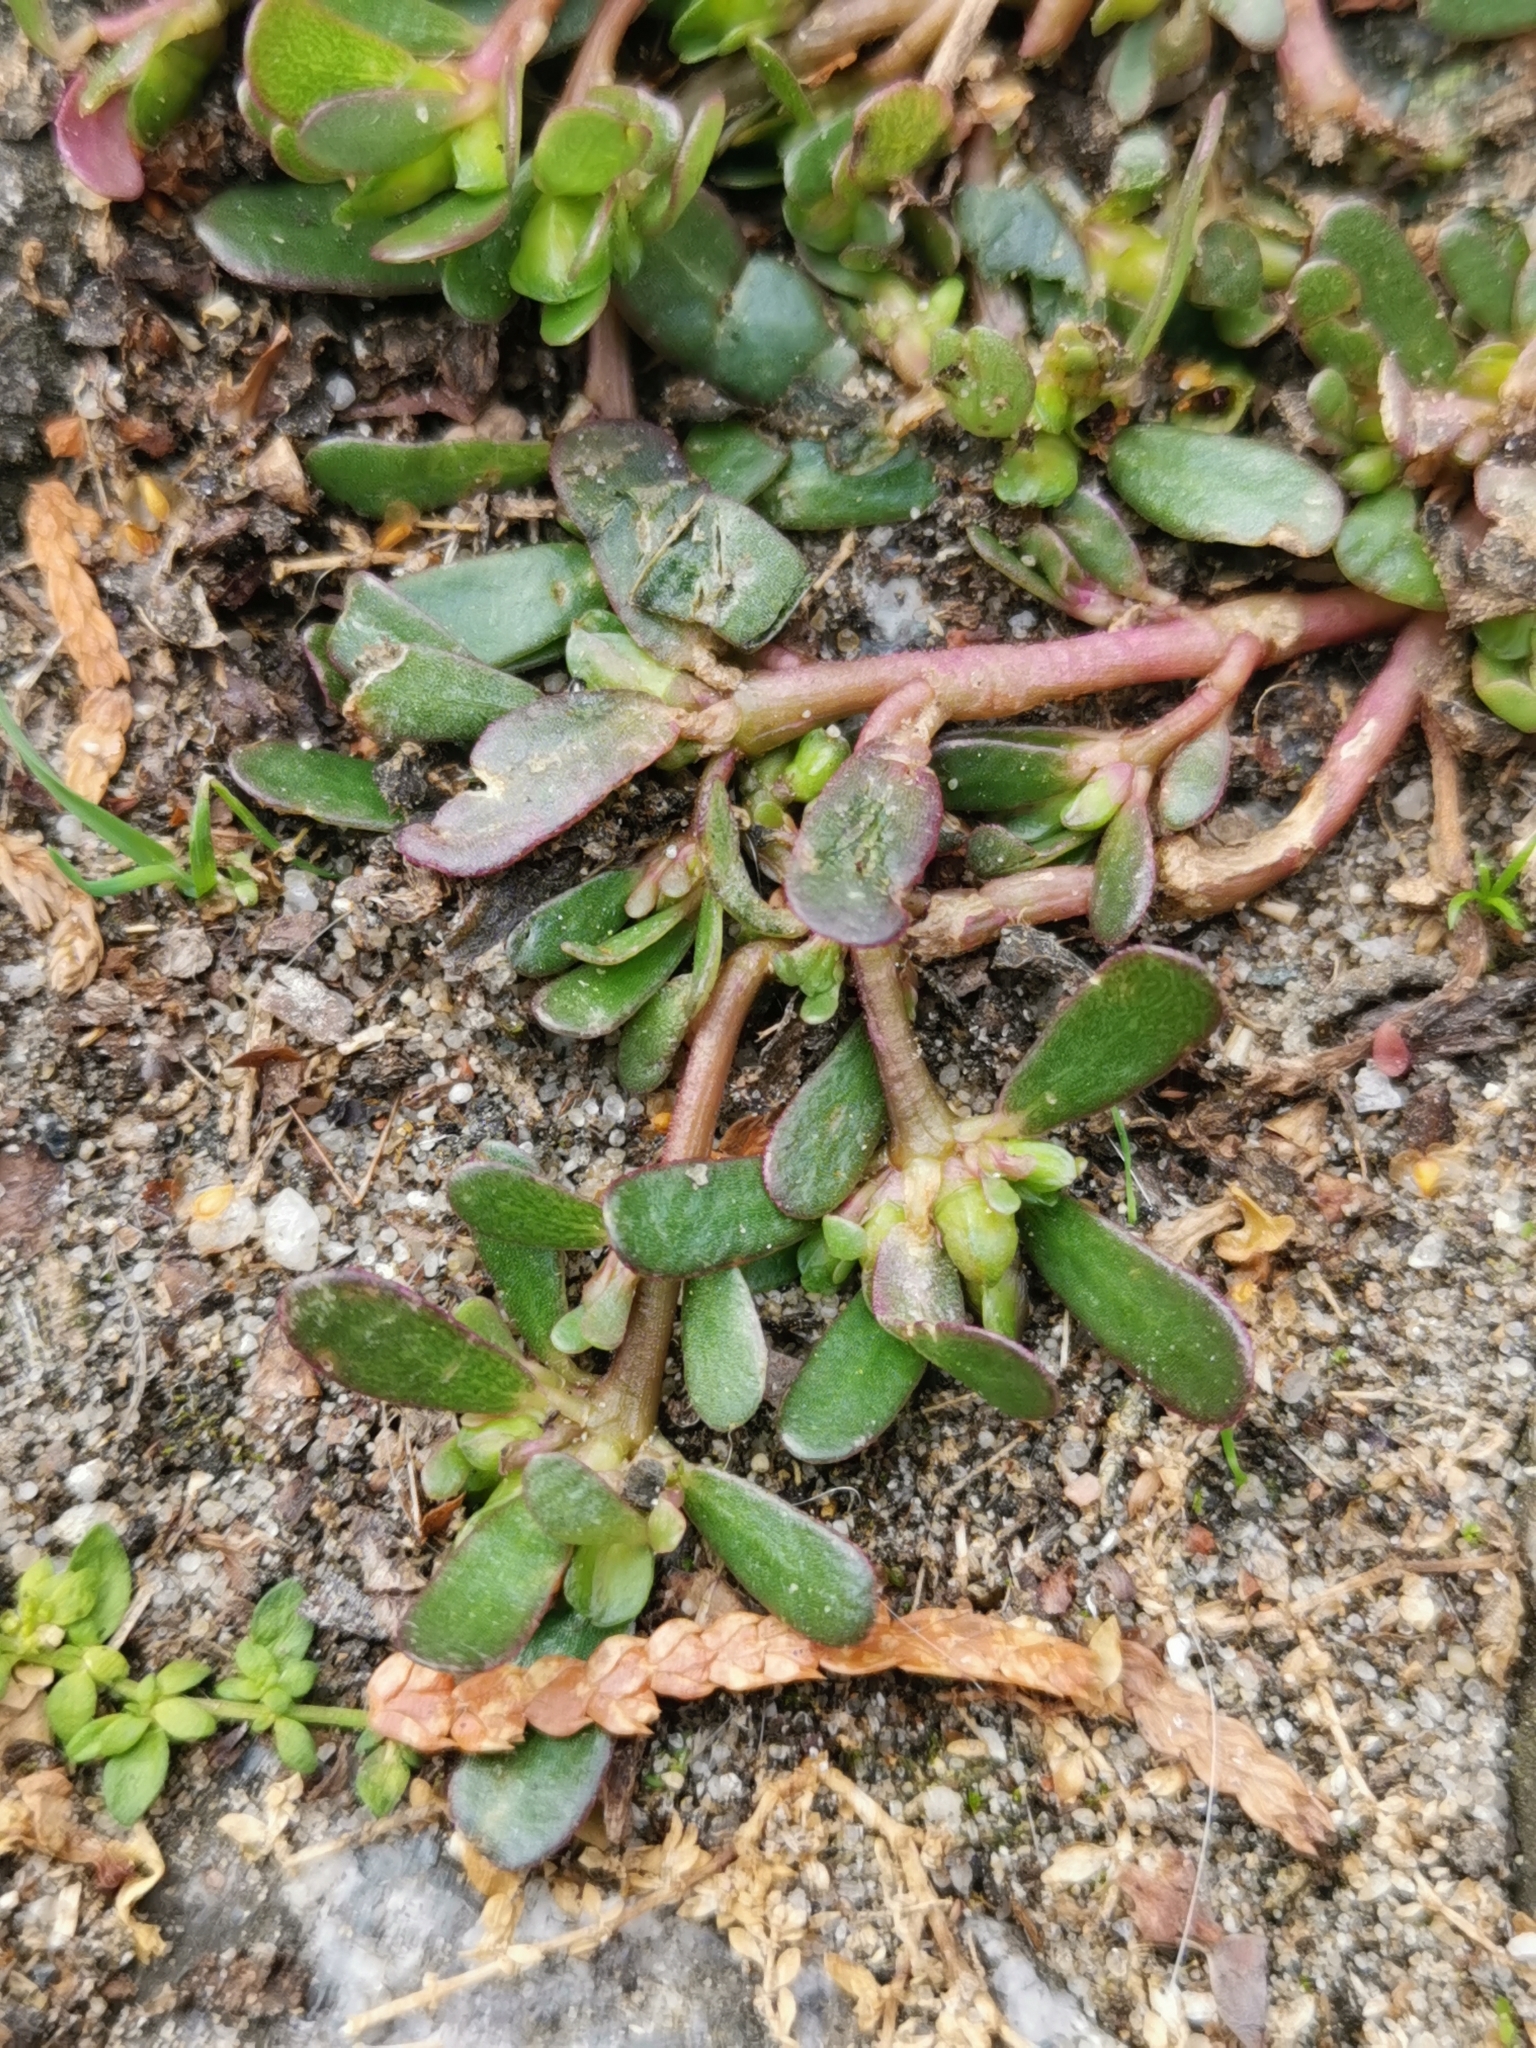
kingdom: Plantae
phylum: Tracheophyta
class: Magnoliopsida
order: Caryophyllales
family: Portulacaceae
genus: Portulaca
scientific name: Portulaca oleracea
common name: Common purslane
